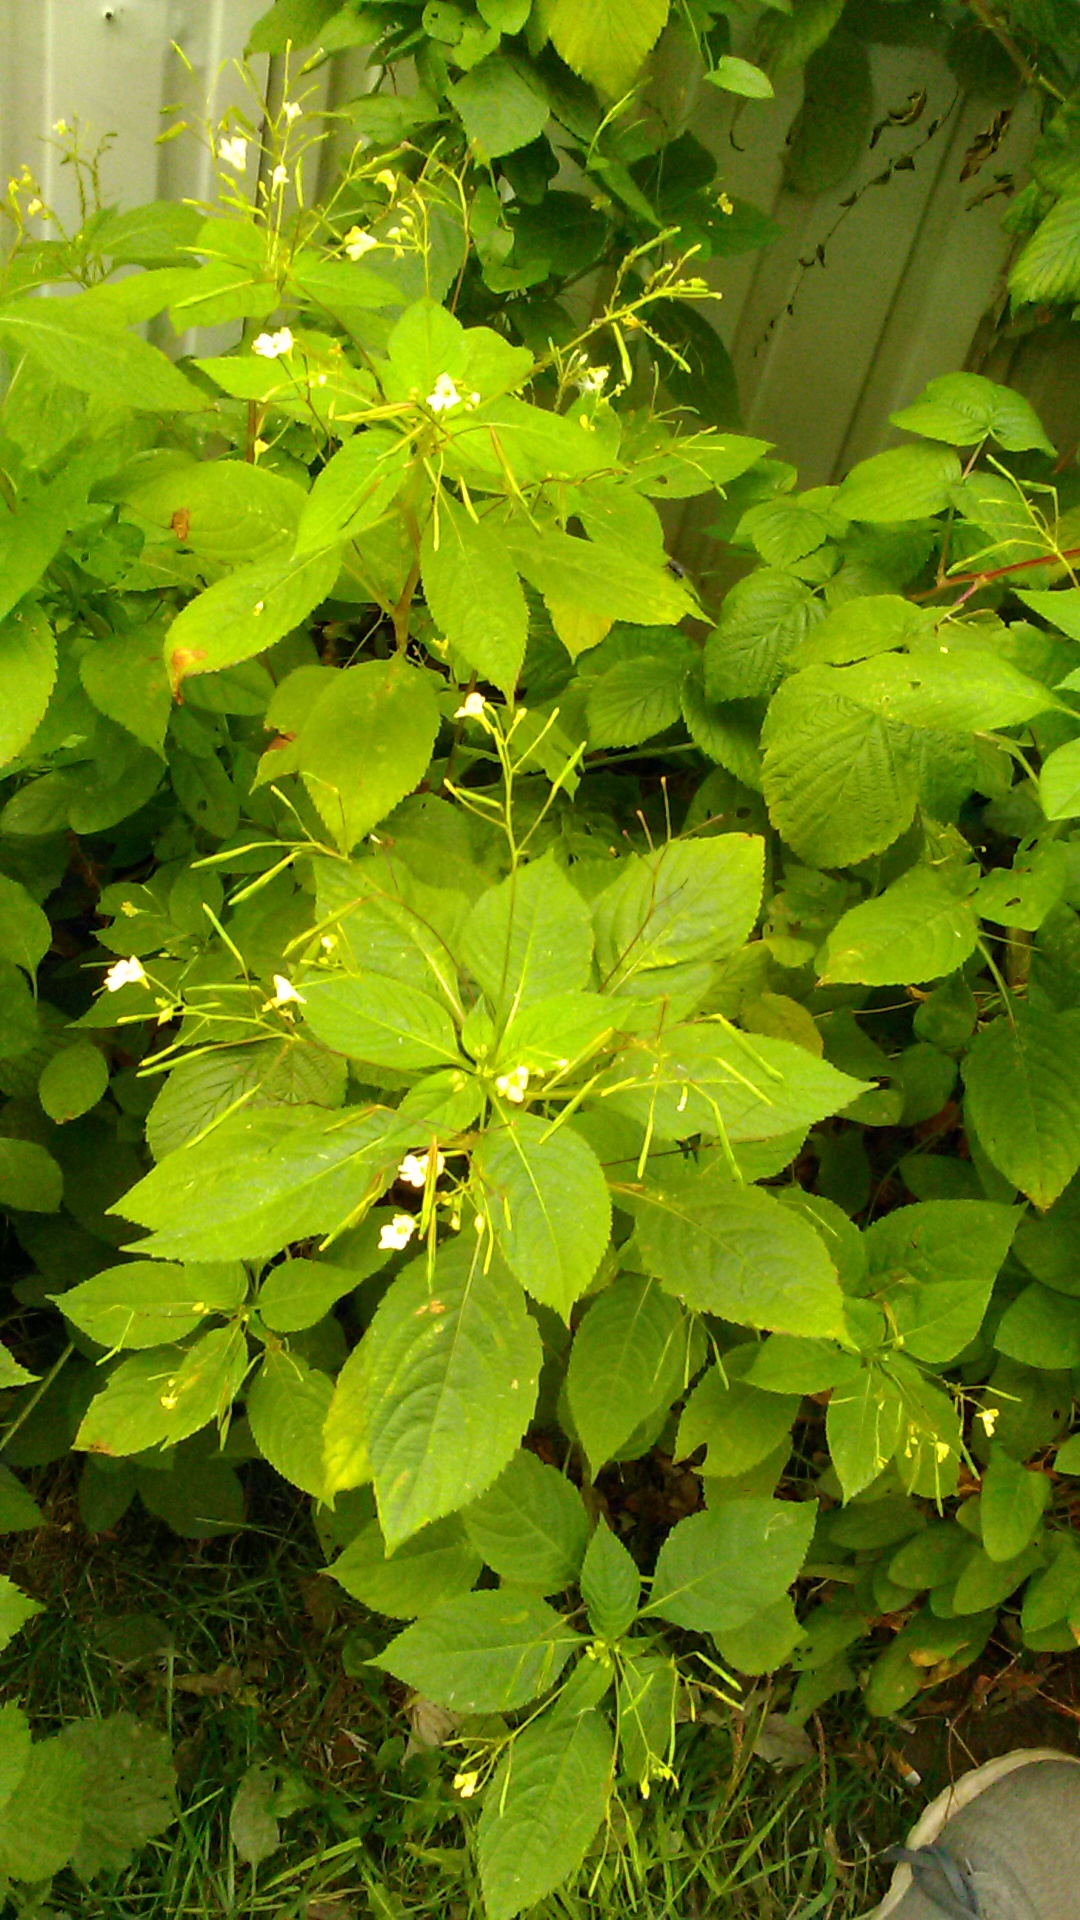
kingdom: Plantae
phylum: Tracheophyta
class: Magnoliopsida
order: Ericales
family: Balsaminaceae
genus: Impatiens
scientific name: Impatiens parviflora
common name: Small balsam
